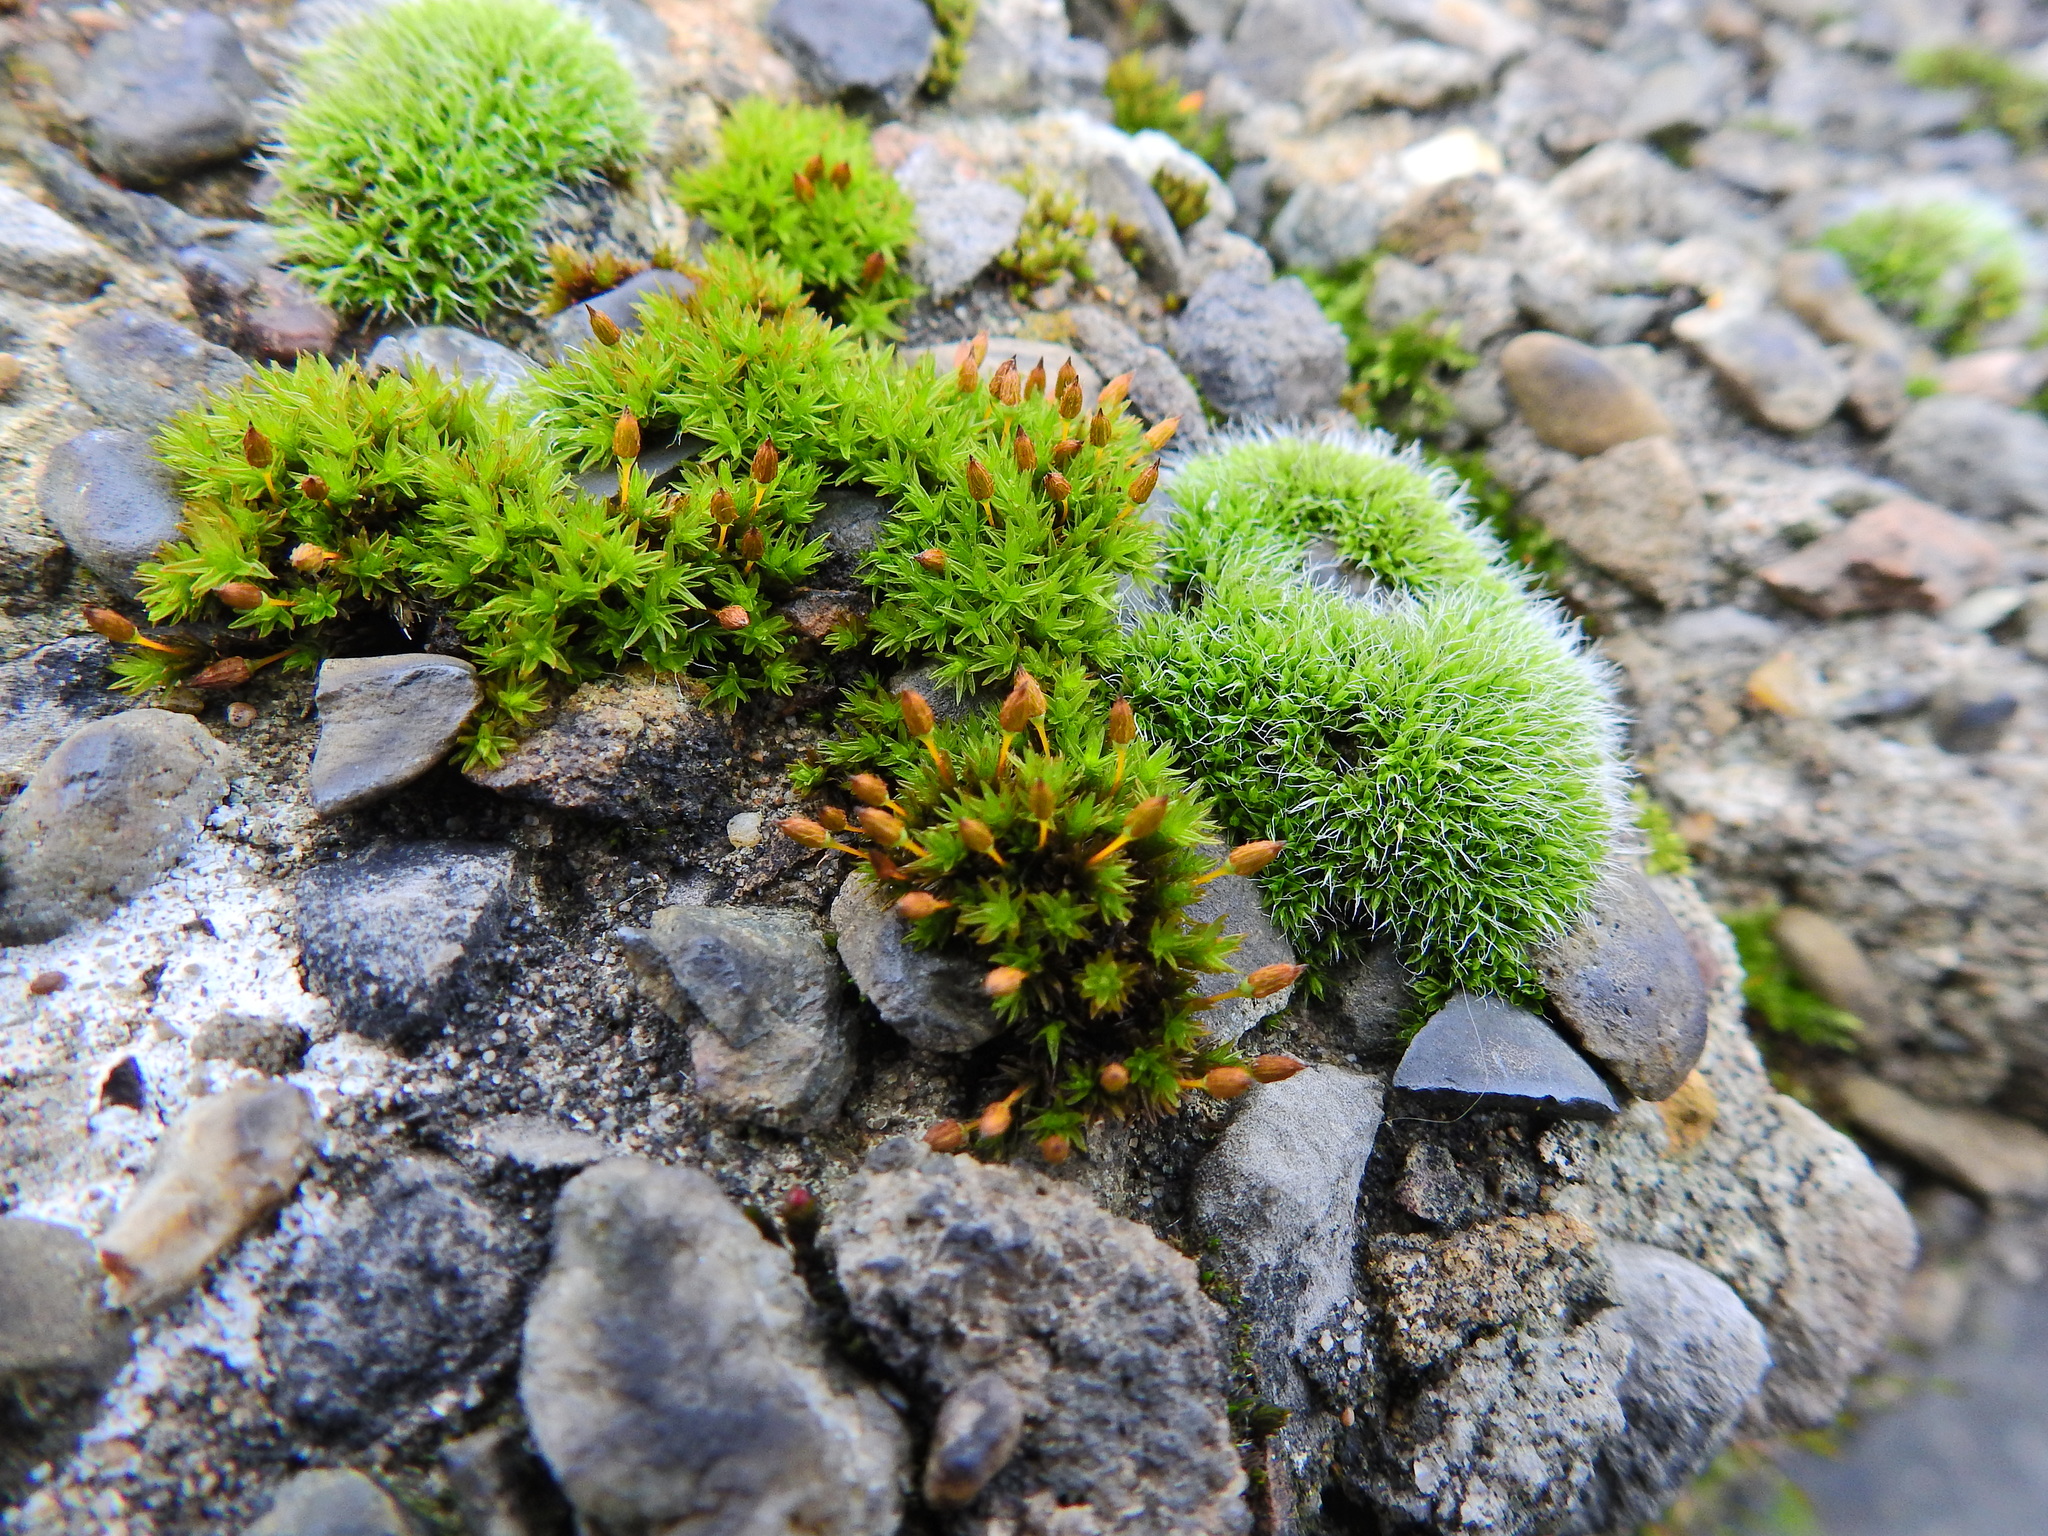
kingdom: Plantae
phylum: Bryophyta
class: Bryopsida
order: Orthotrichales
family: Orthotrichaceae
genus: Orthotrichum
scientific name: Orthotrichum anomalum
